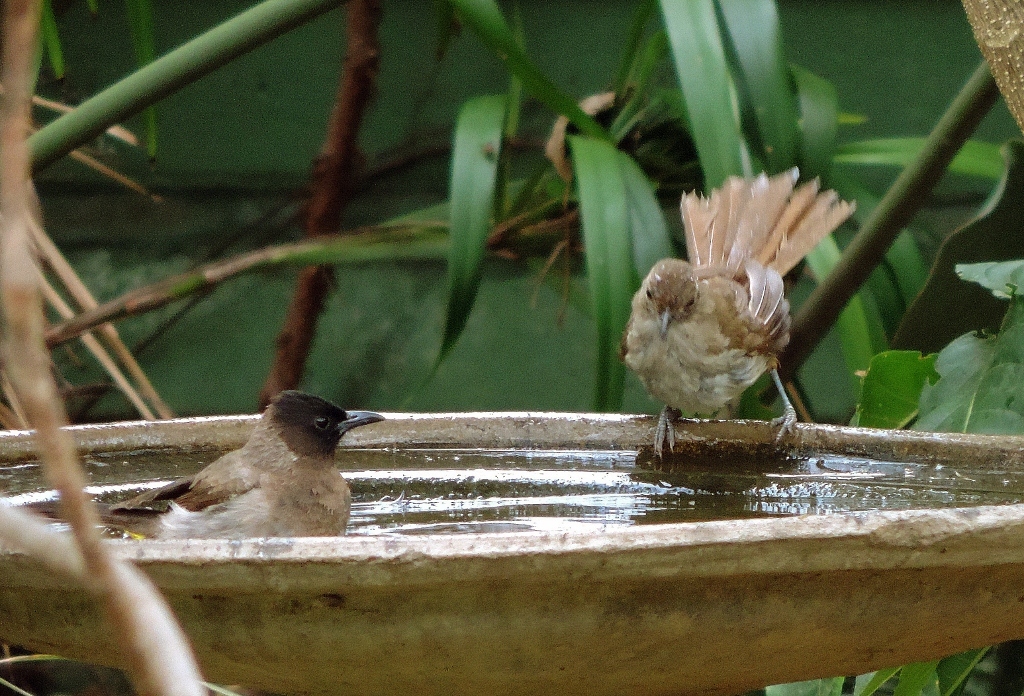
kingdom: Animalia
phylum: Chordata
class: Aves
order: Passeriformes
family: Pycnonotidae
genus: Phyllastrephus
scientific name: Phyllastrephus terrestris
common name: Terrestrial brownbul
